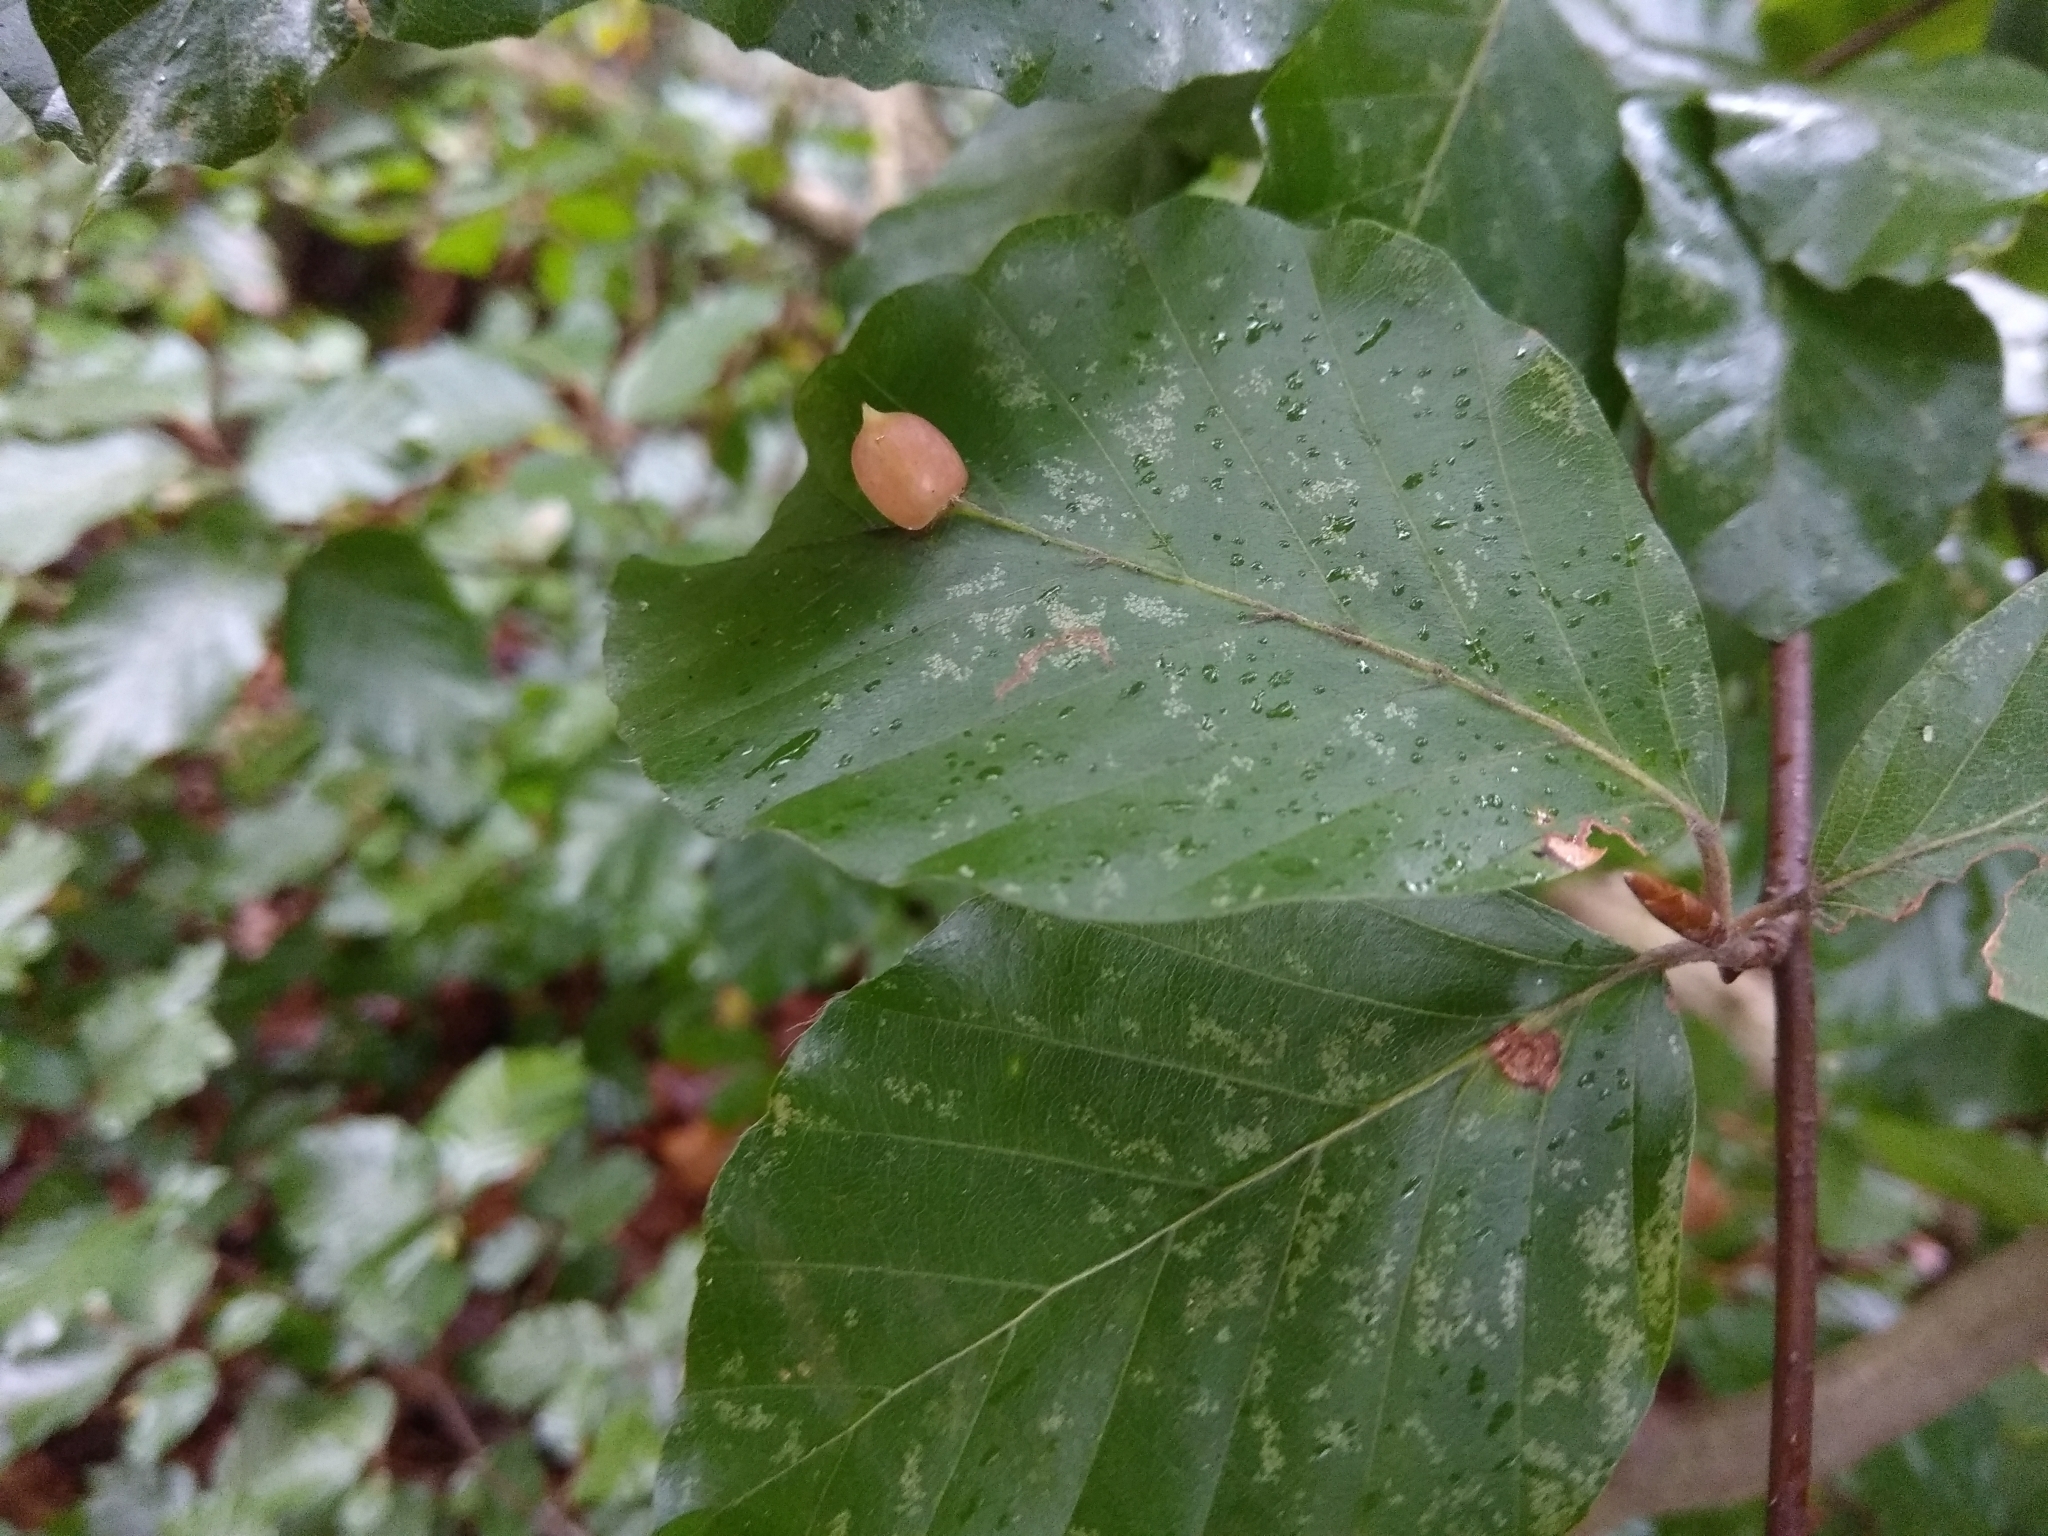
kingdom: Animalia
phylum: Arthropoda
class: Insecta
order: Diptera
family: Cecidomyiidae
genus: Mikiola
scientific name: Mikiola fagi
